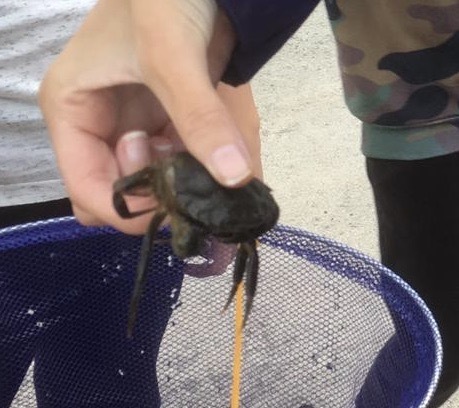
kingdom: Animalia
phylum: Arthropoda
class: Malacostraca
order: Decapoda
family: Carcinidae
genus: Carcinus
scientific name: Carcinus maenas
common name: European green crab
